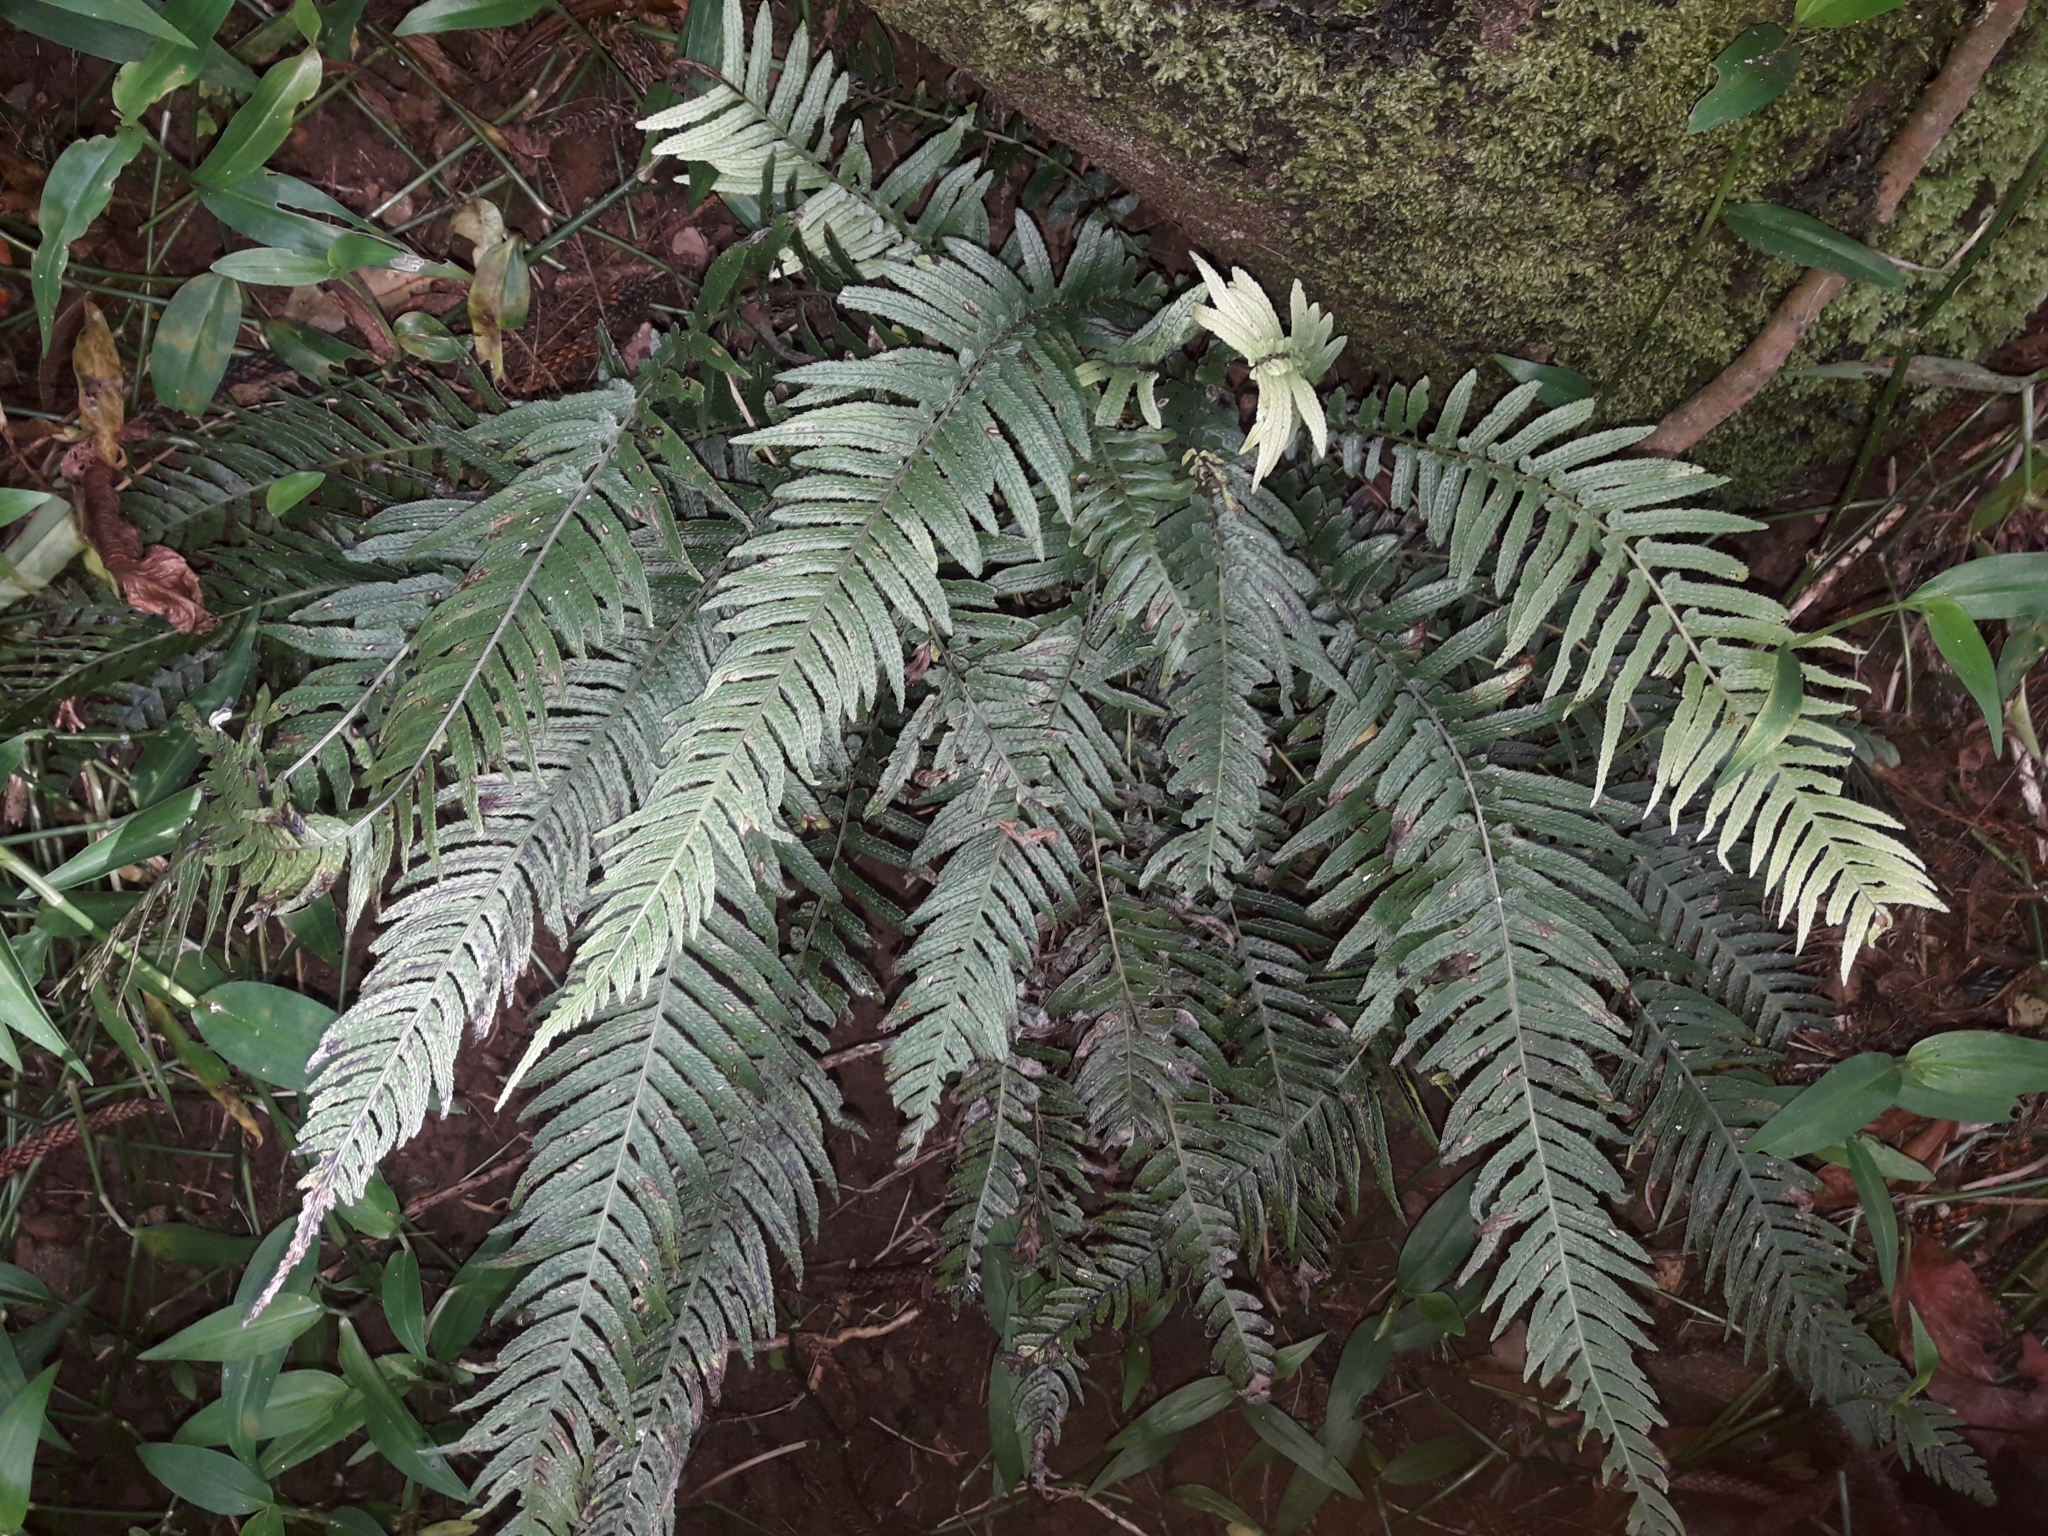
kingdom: Plantae
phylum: Tracheophyta
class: Polypodiopsida
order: Polypodiales
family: Blechnaceae
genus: Doodia
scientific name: Doodia australis
